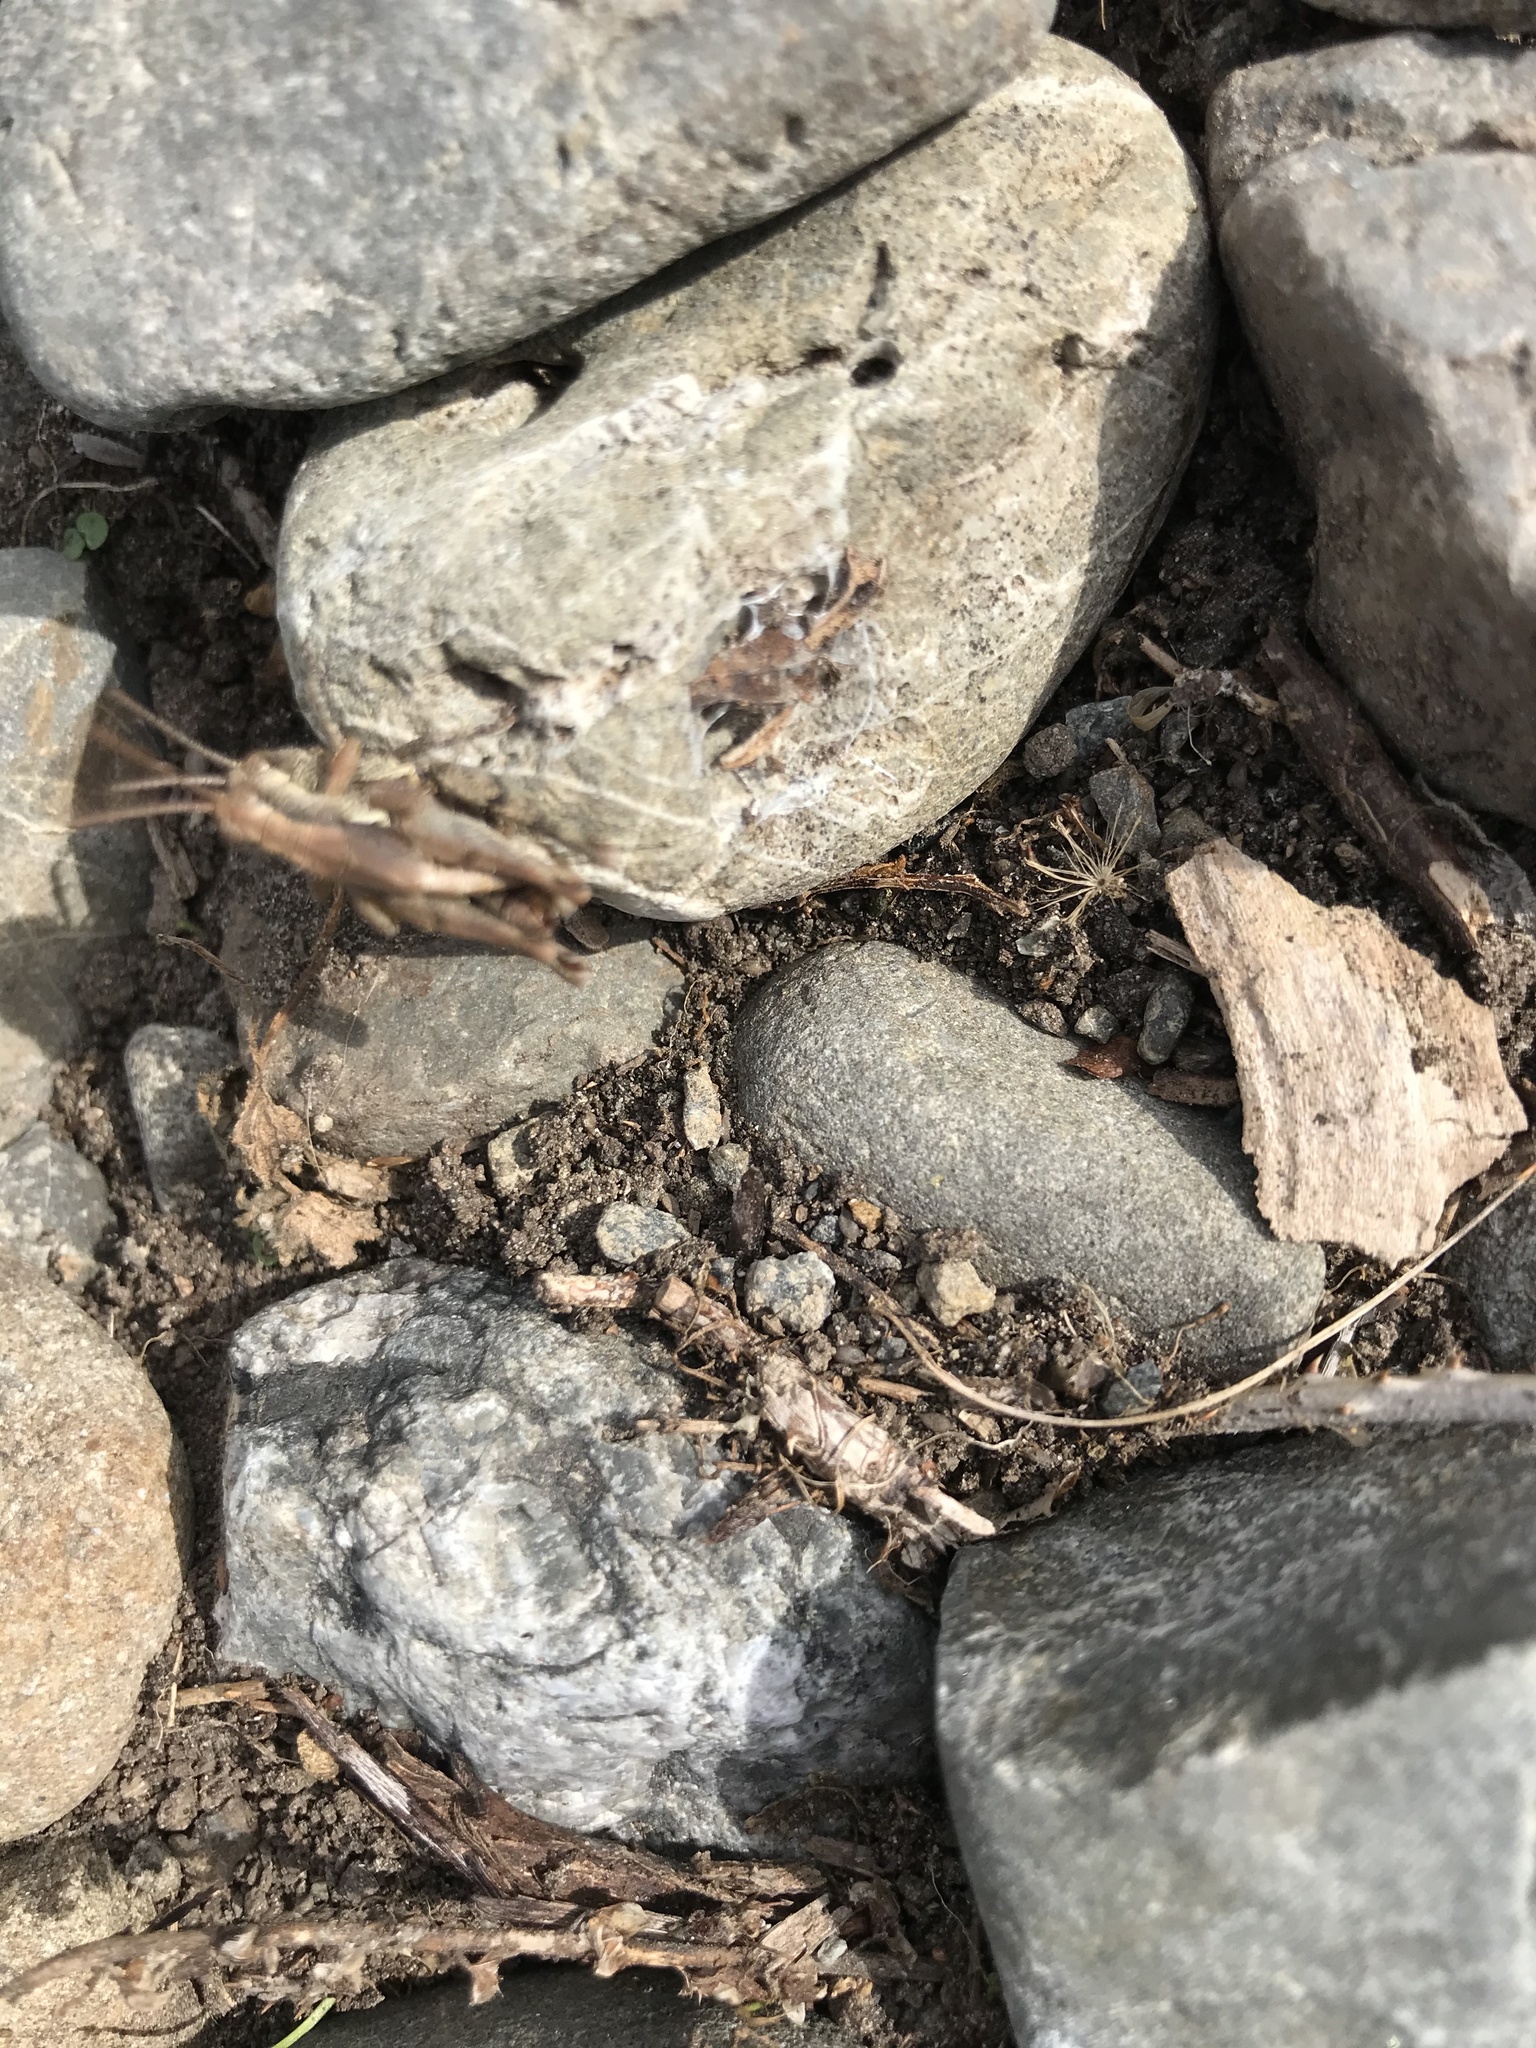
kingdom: Animalia
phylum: Arthropoda
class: Insecta
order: Orthoptera
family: Acrididae
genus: Phaulacridium
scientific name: Phaulacridium marginale
